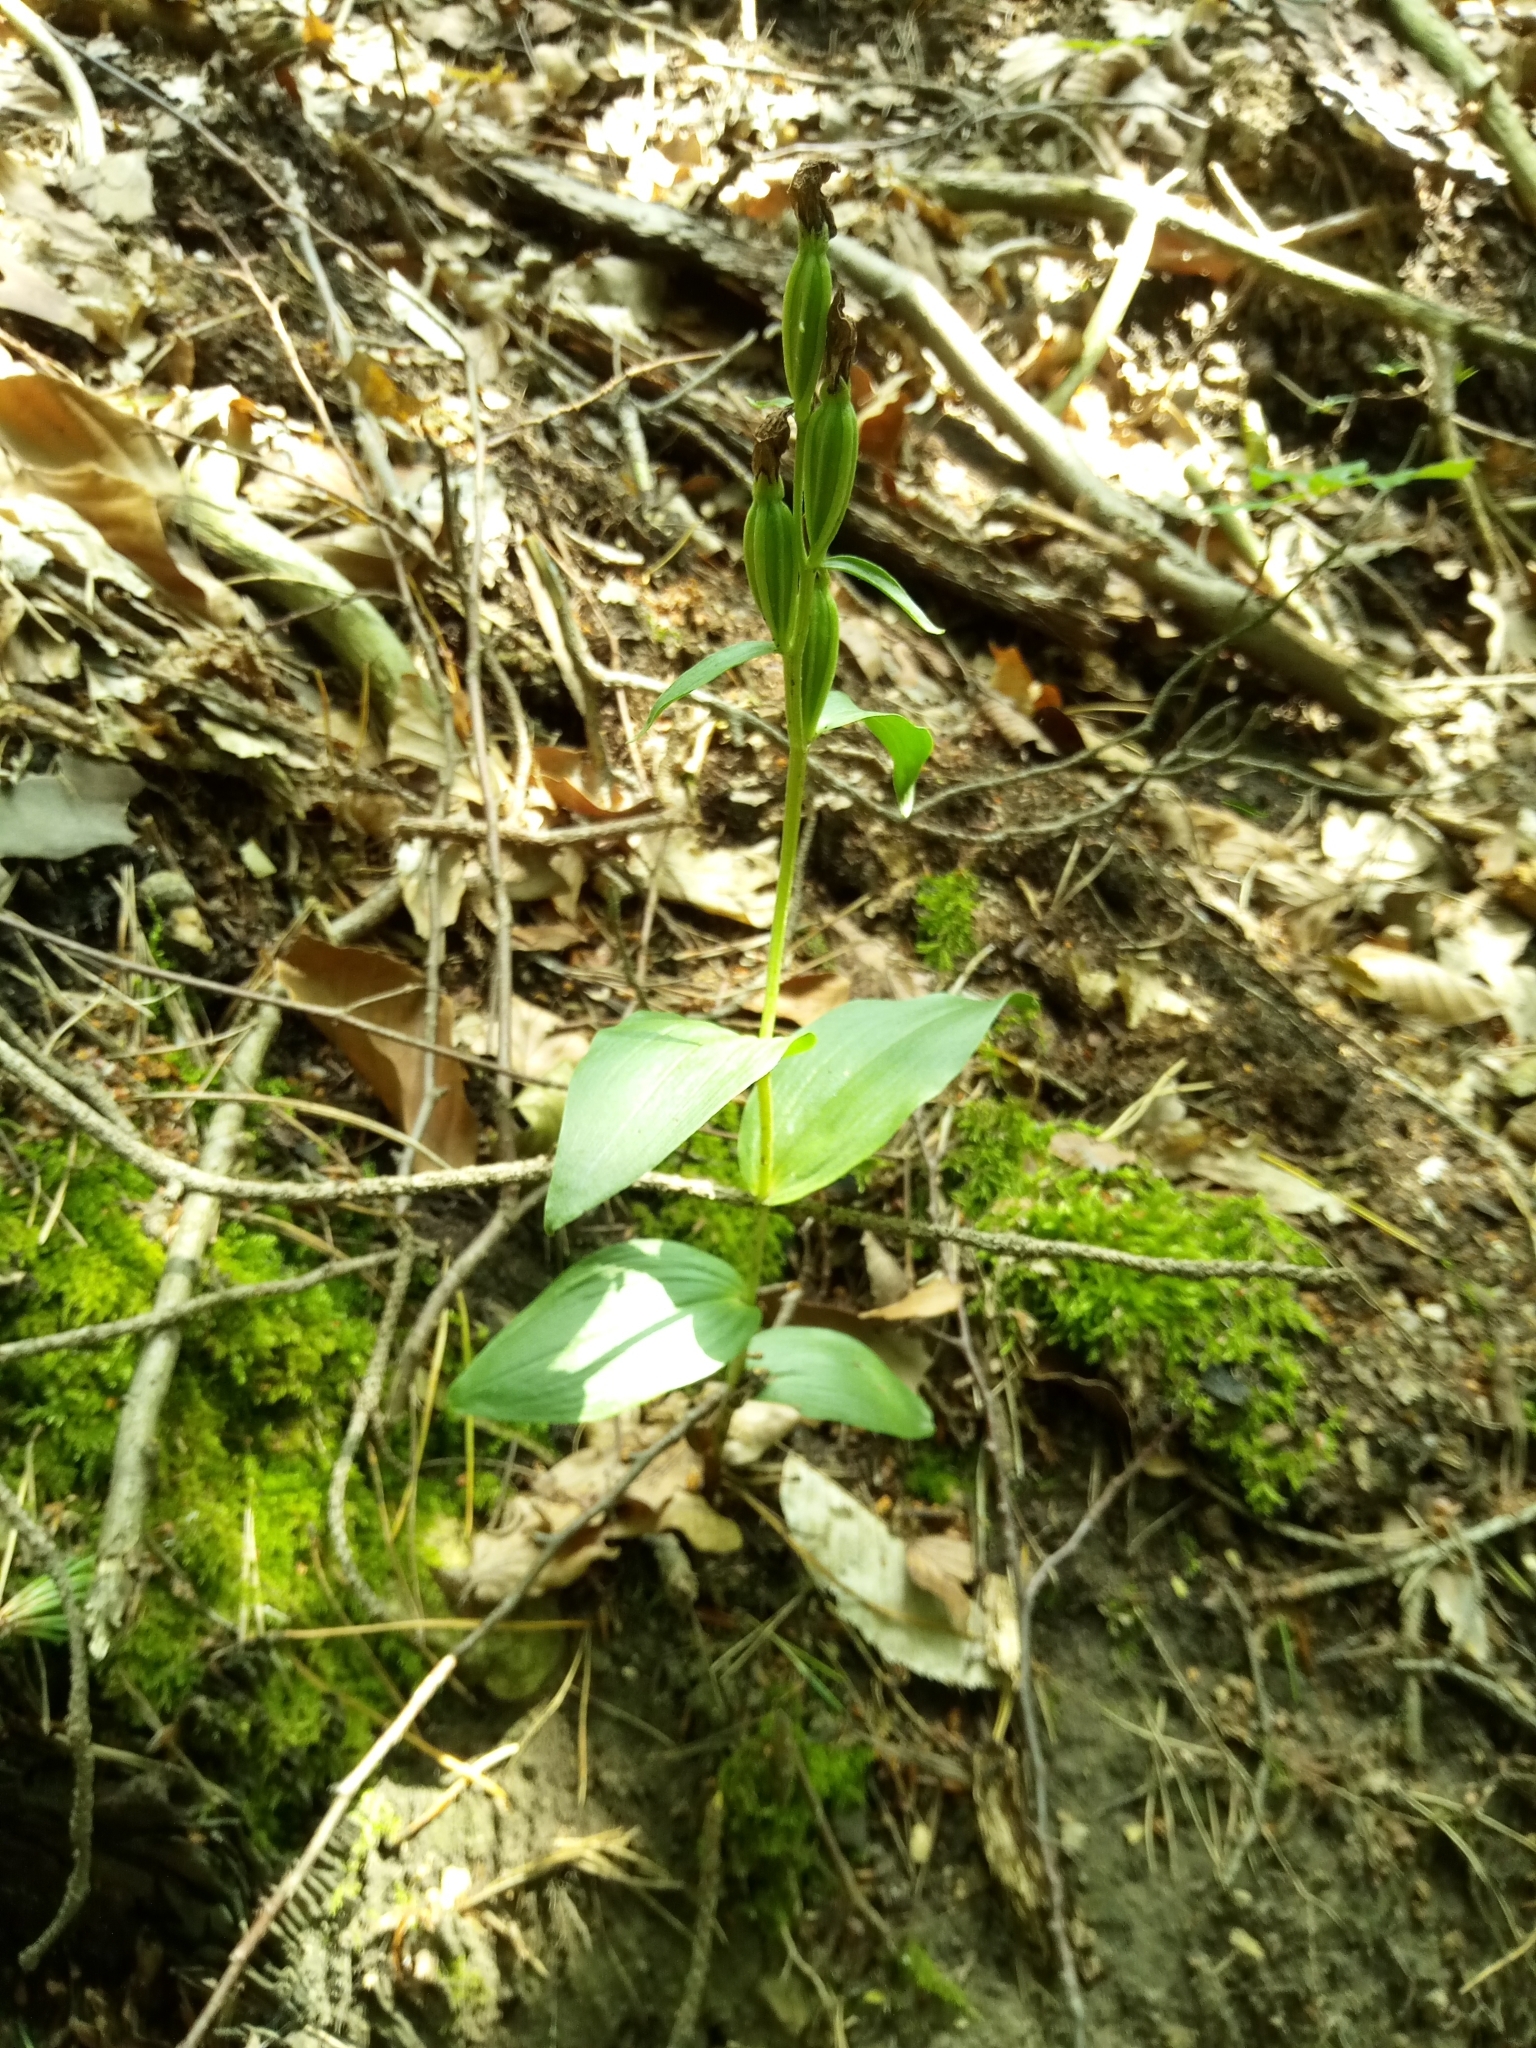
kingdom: Plantae
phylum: Tracheophyta
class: Liliopsida
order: Asparagales
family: Orchidaceae
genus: Cephalanthera
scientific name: Cephalanthera damasonium
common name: White helleborine
